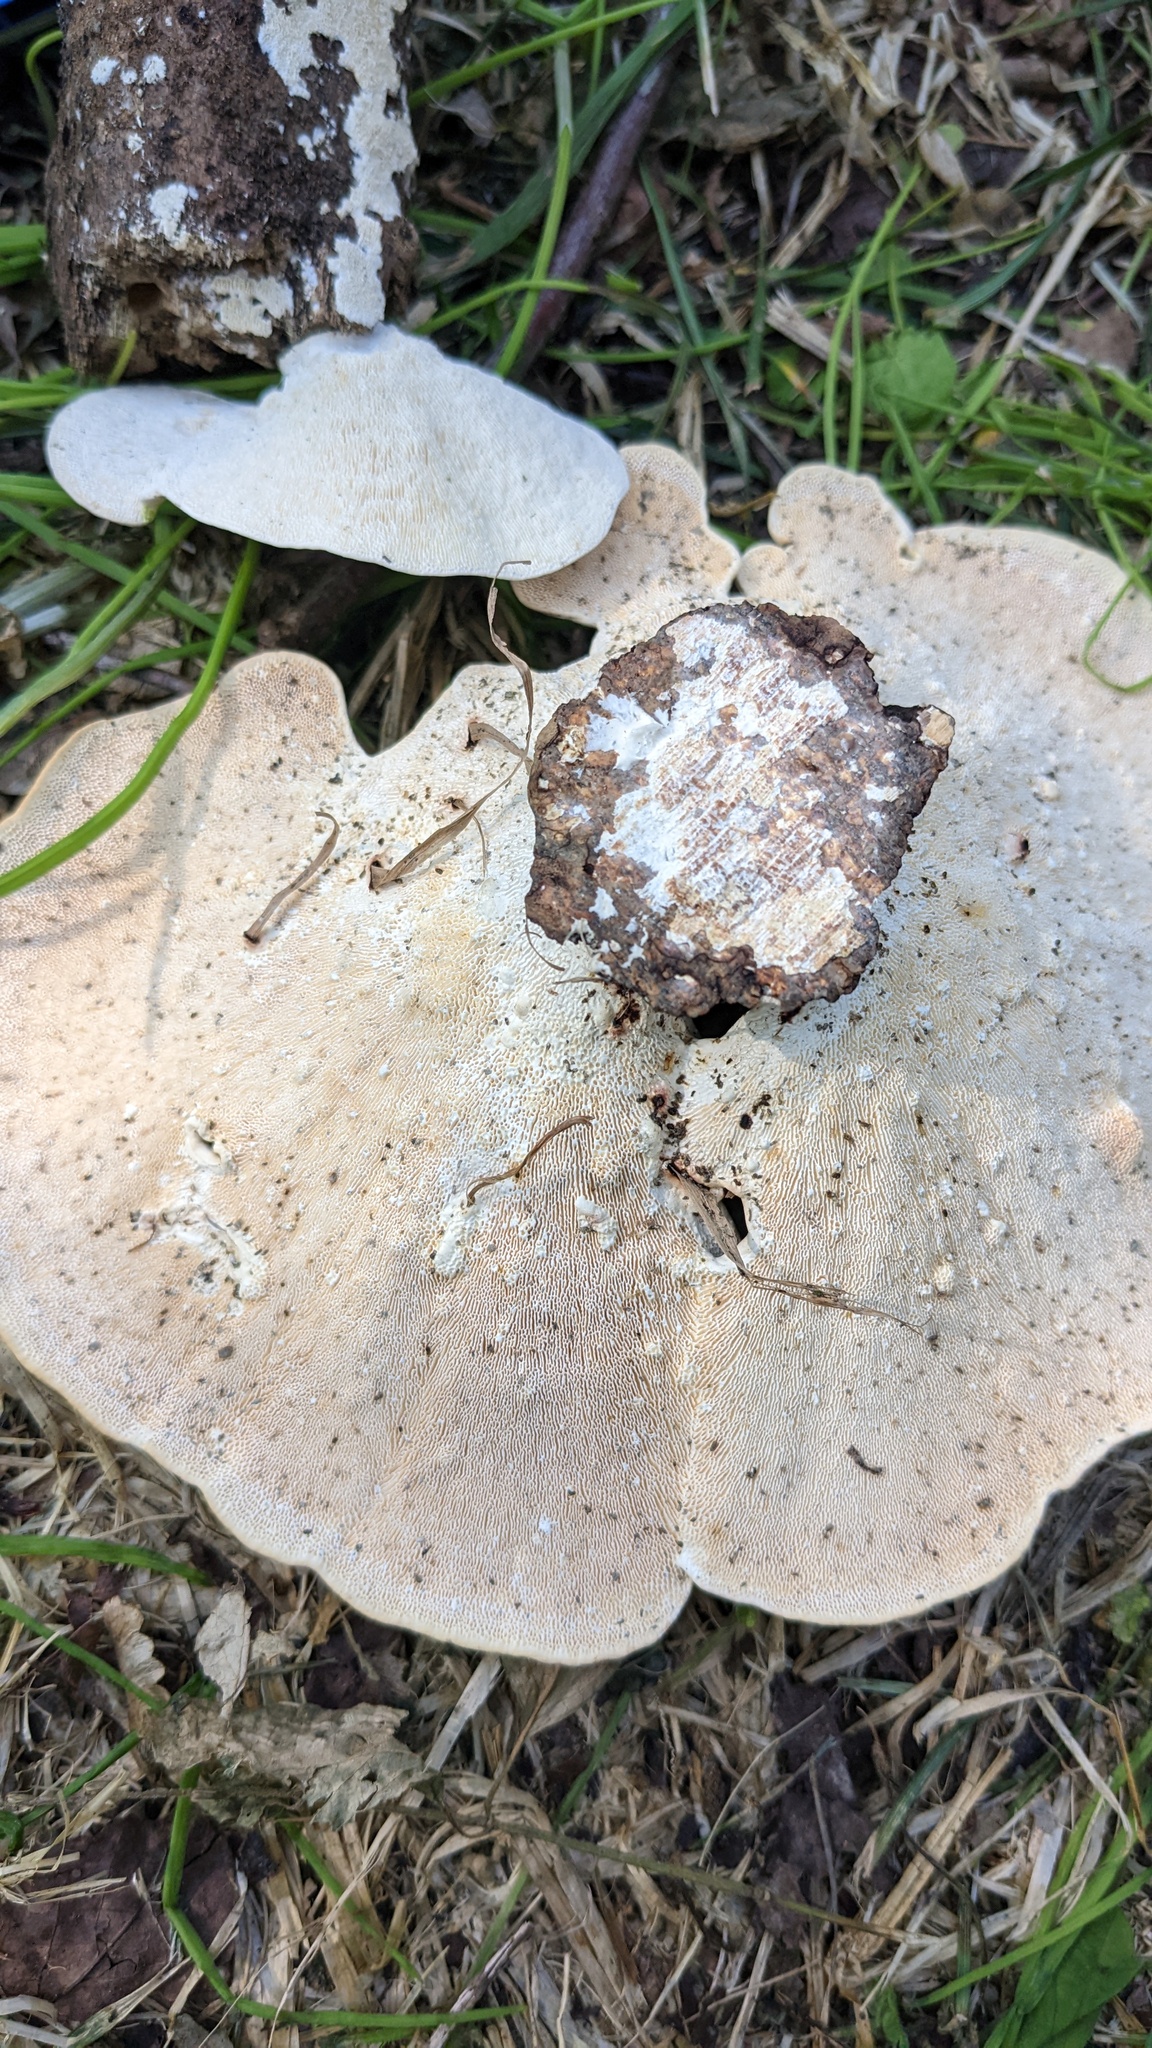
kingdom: Fungi
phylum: Basidiomycota
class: Agaricomycetes
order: Polyporales
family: Polyporaceae
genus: Trametes
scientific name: Trametes elegans
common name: White maze polypore
